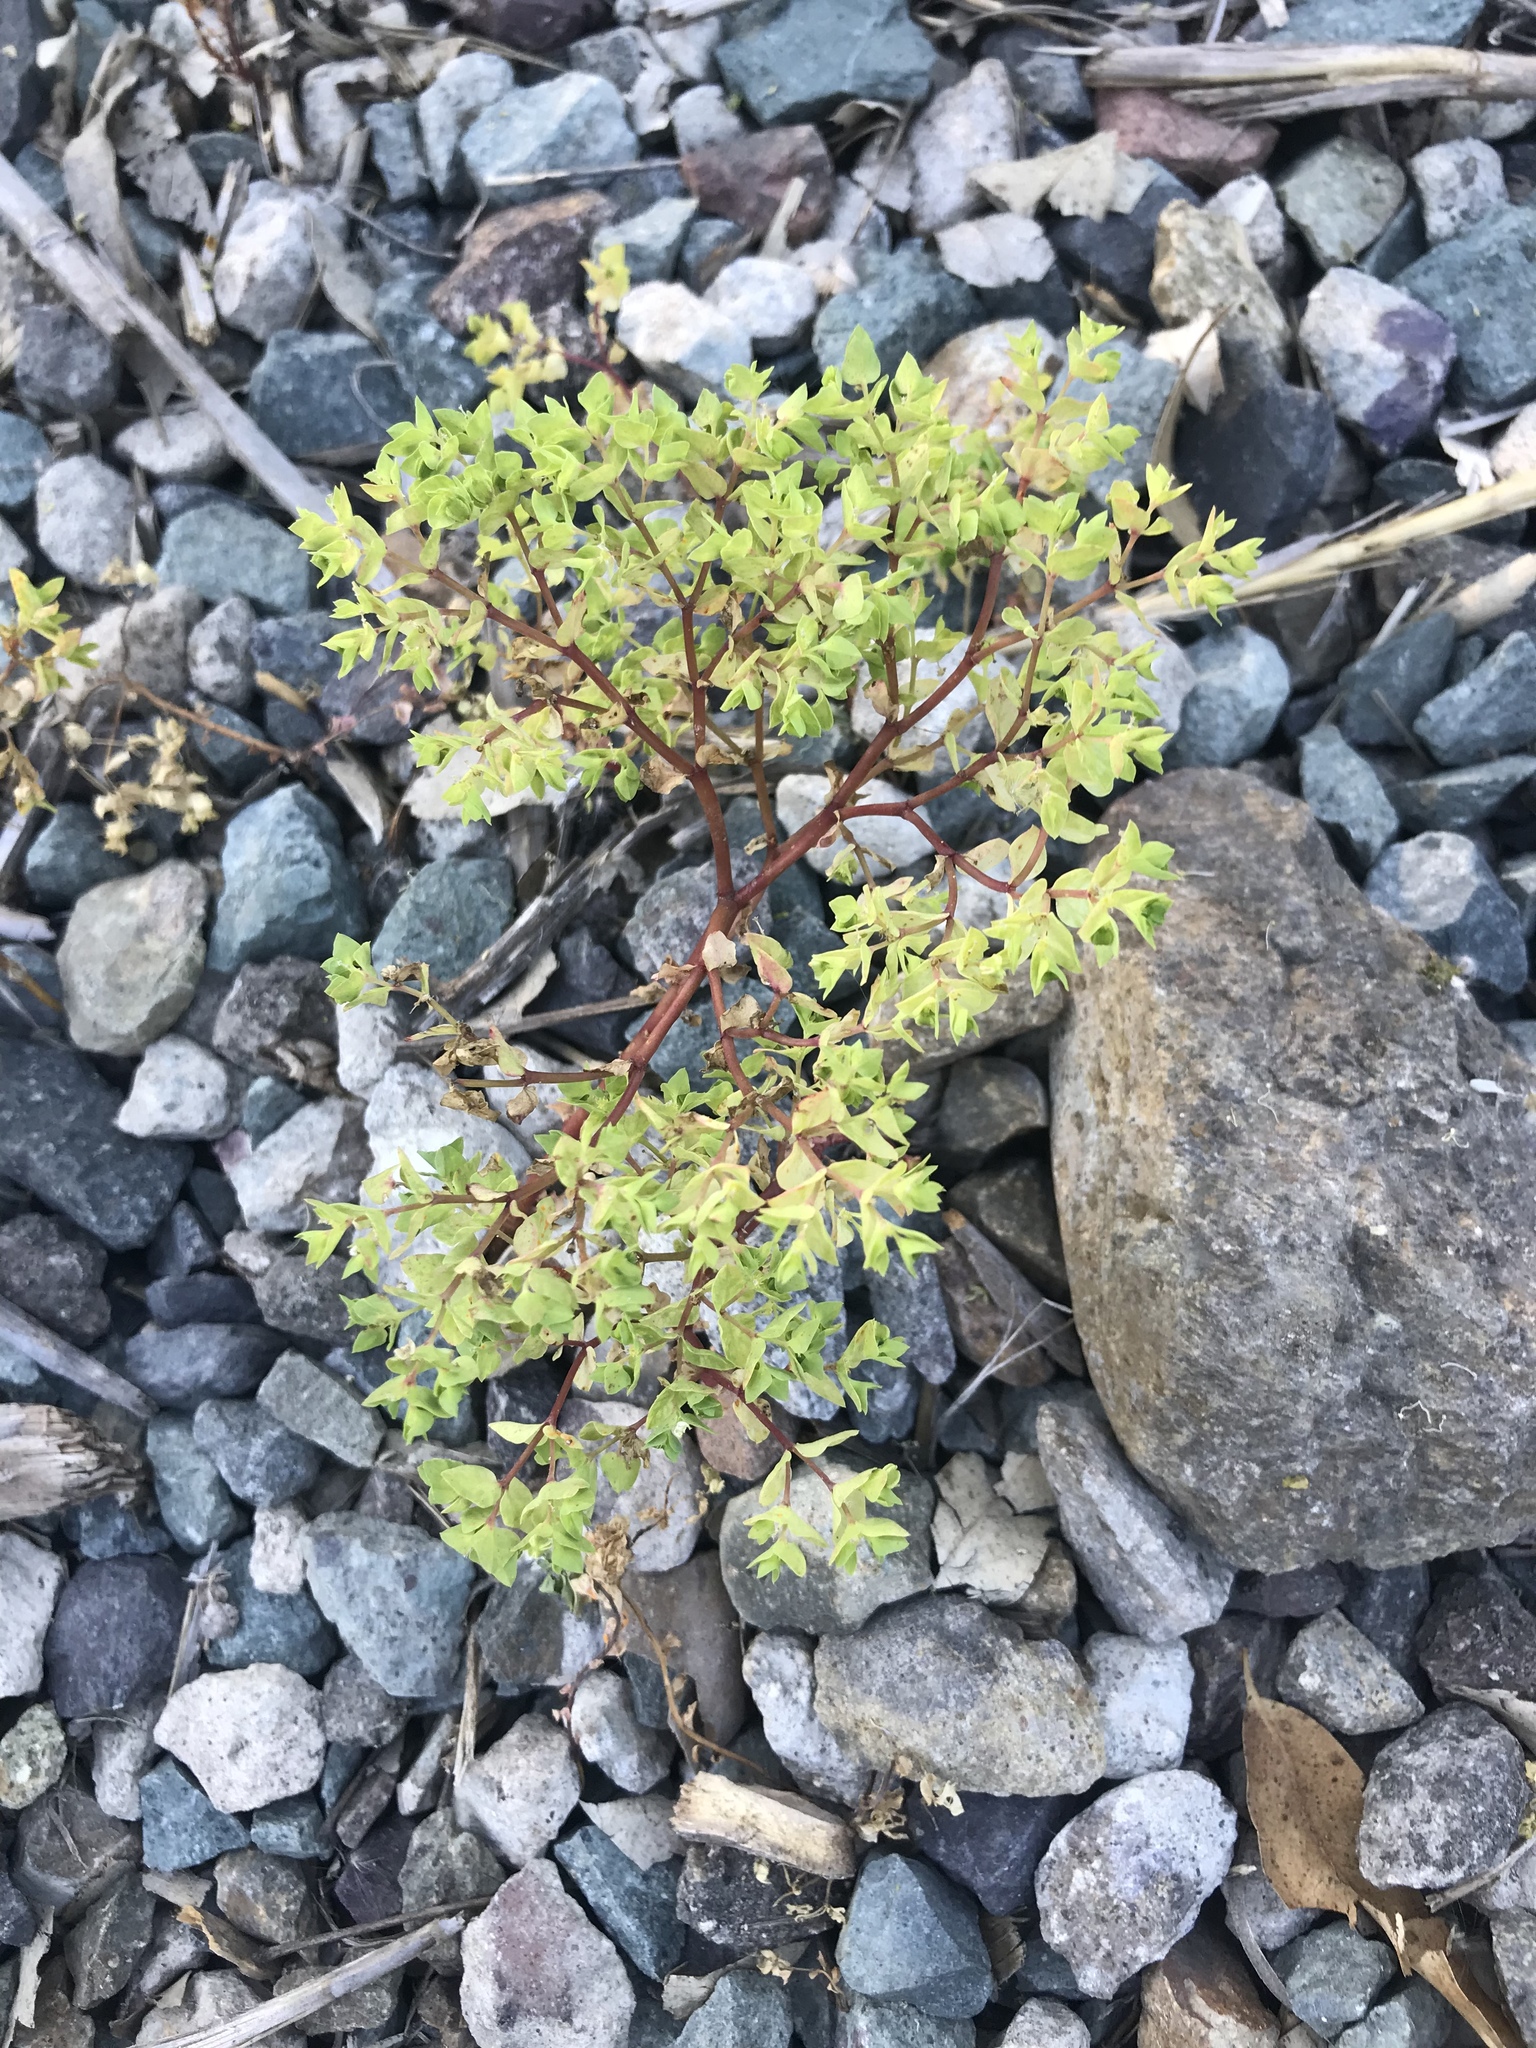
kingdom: Plantae
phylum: Tracheophyta
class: Magnoliopsida
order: Malpighiales
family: Euphorbiaceae
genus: Euphorbia
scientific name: Euphorbia peplus
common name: Petty spurge
